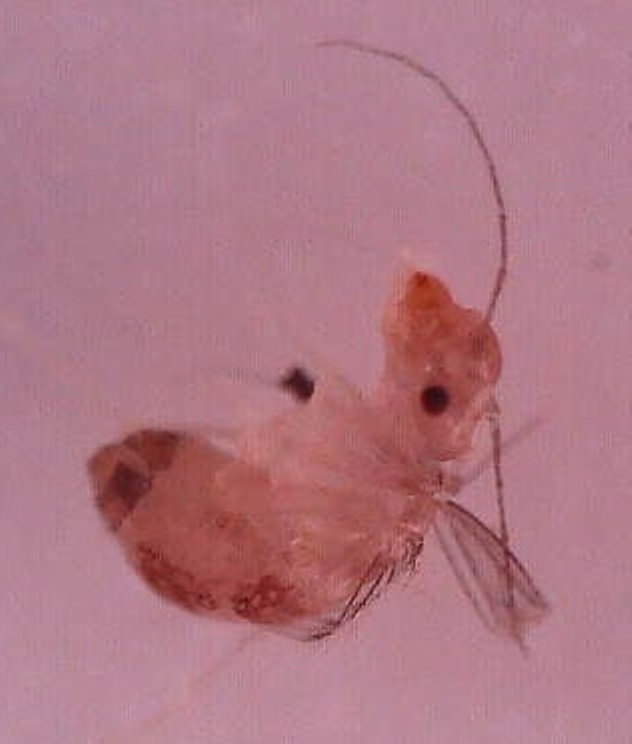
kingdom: Animalia
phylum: Arthropoda
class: Insecta
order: Psocodea
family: Psyllipsocidae
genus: Dorypteryx
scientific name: Dorypteryx domestica
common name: Cave barklouse
